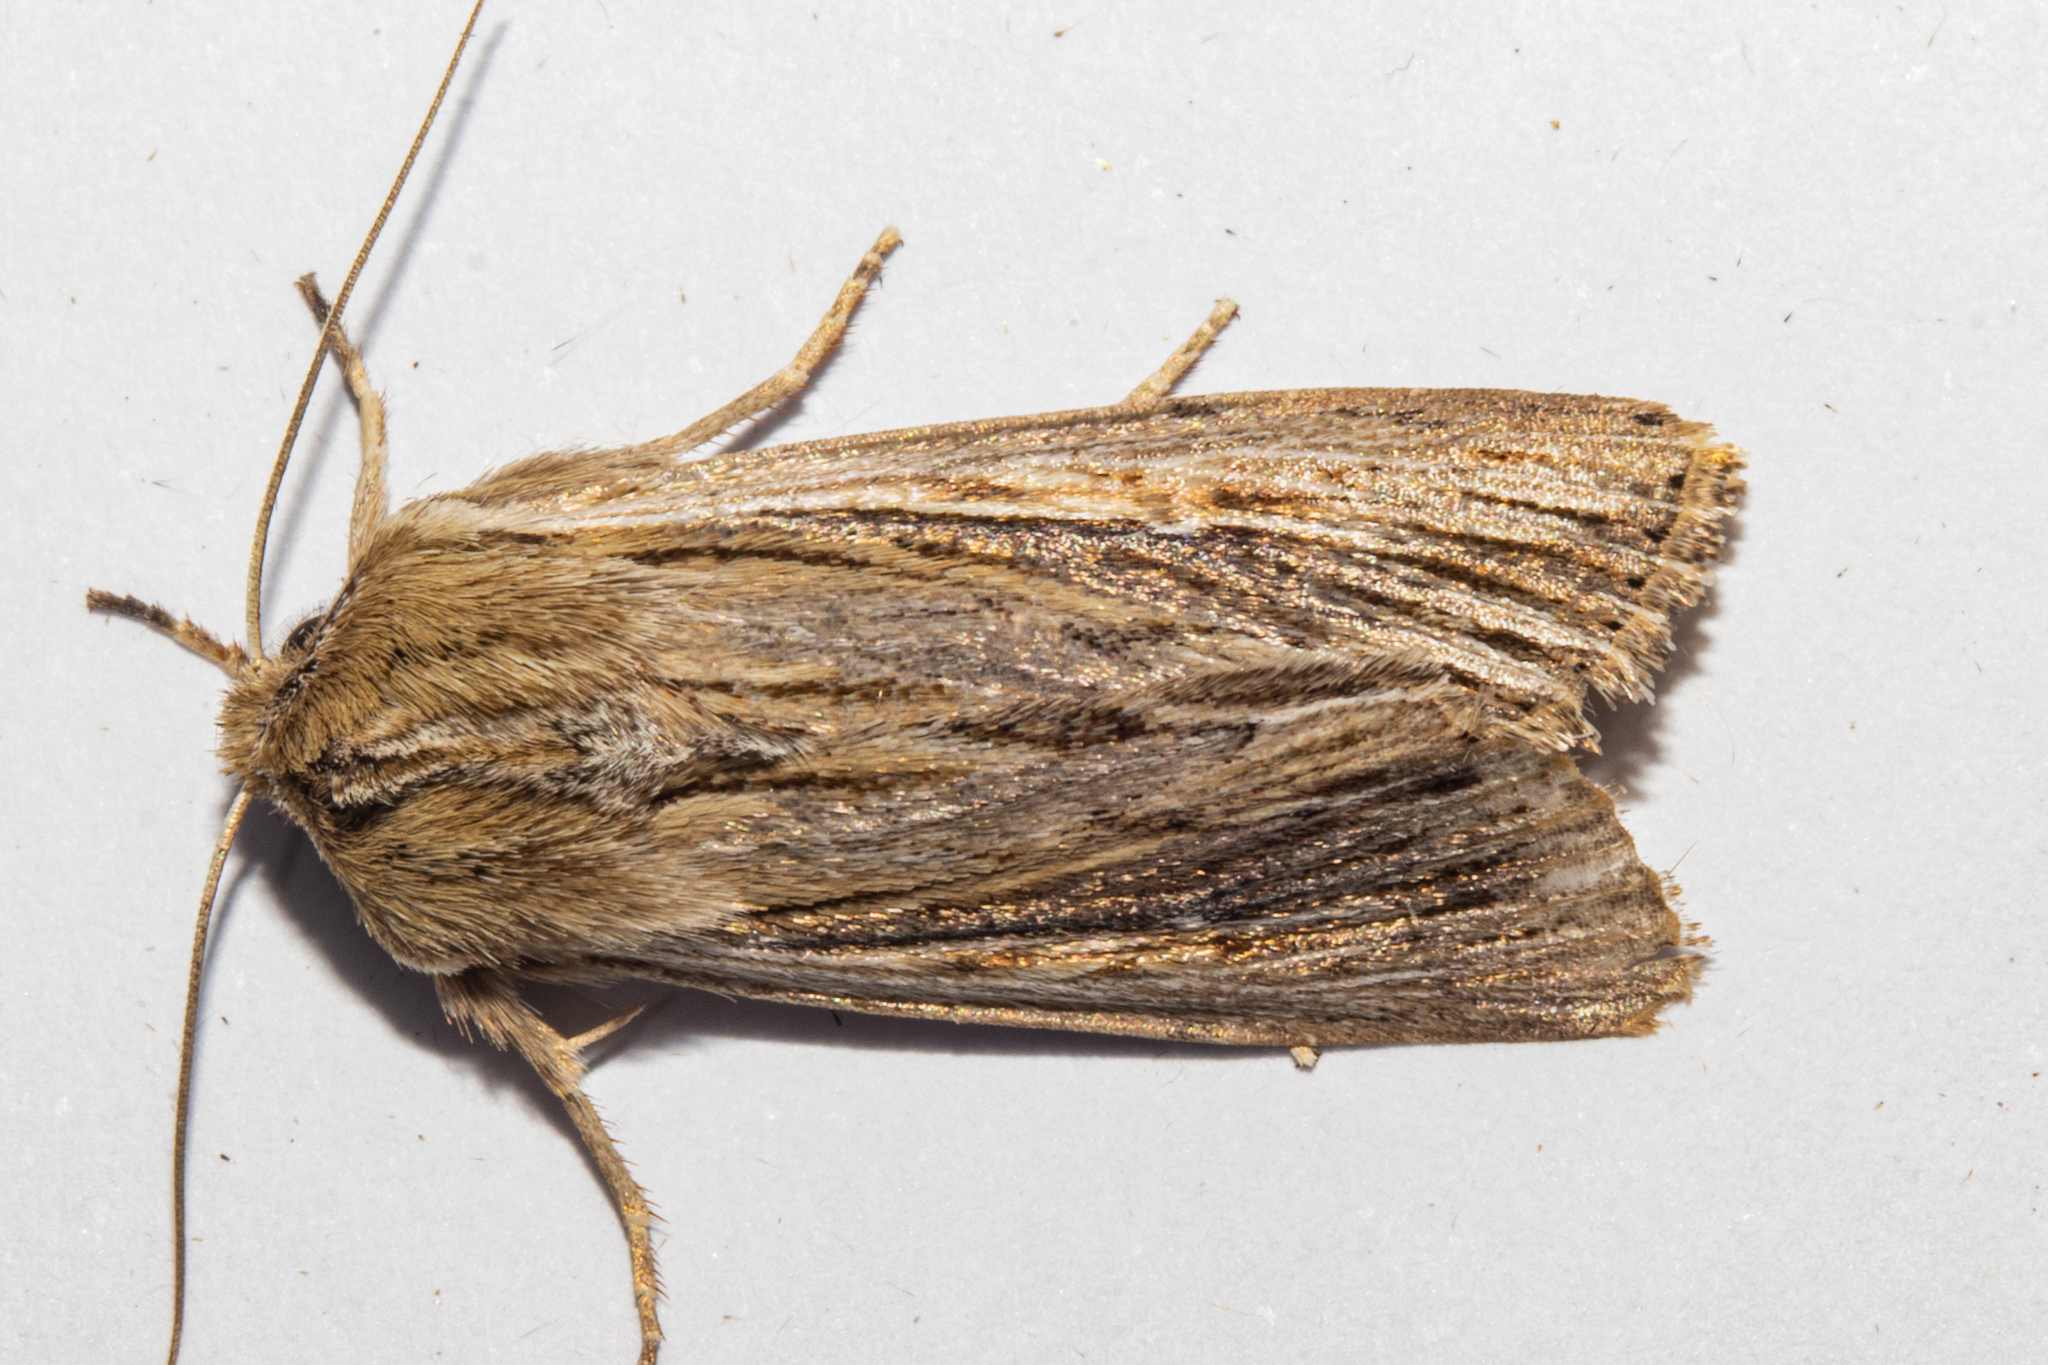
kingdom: Animalia
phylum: Arthropoda
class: Insecta
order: Lepidoptera
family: Noctuidae
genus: Persectania
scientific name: Persectania aversa
